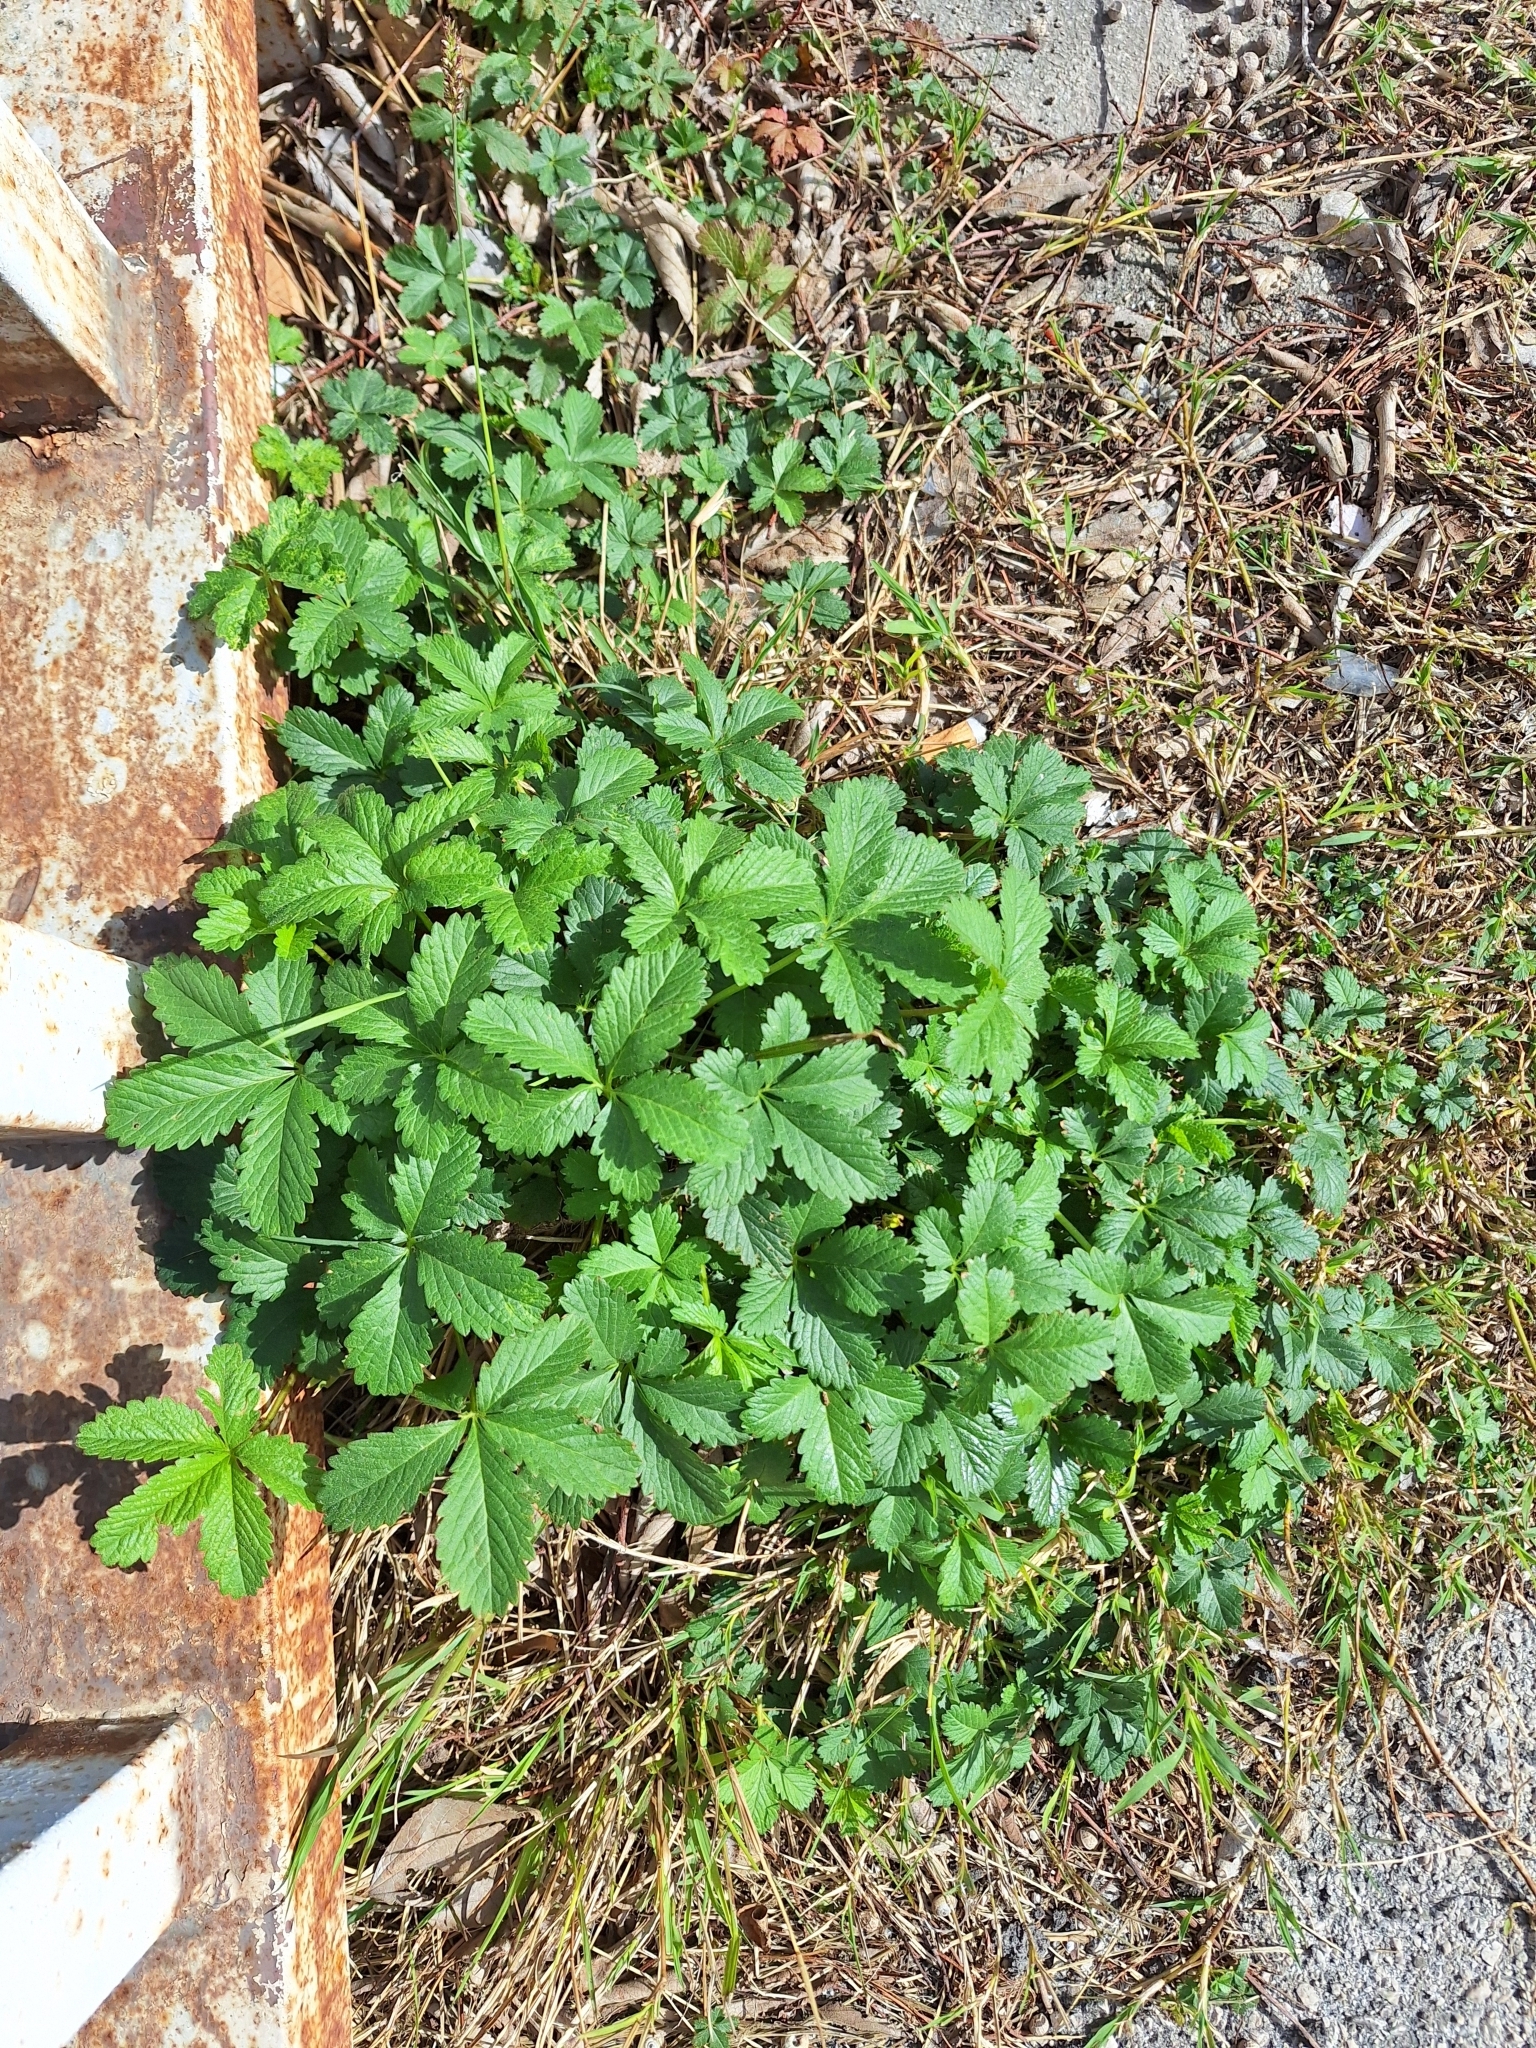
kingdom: Plantae
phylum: Tracheophyta
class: Magnoliopsida
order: Rosales
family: Rosaceae
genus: Potentilla
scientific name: Potentilla reptans
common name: Creeping cinquefoil
